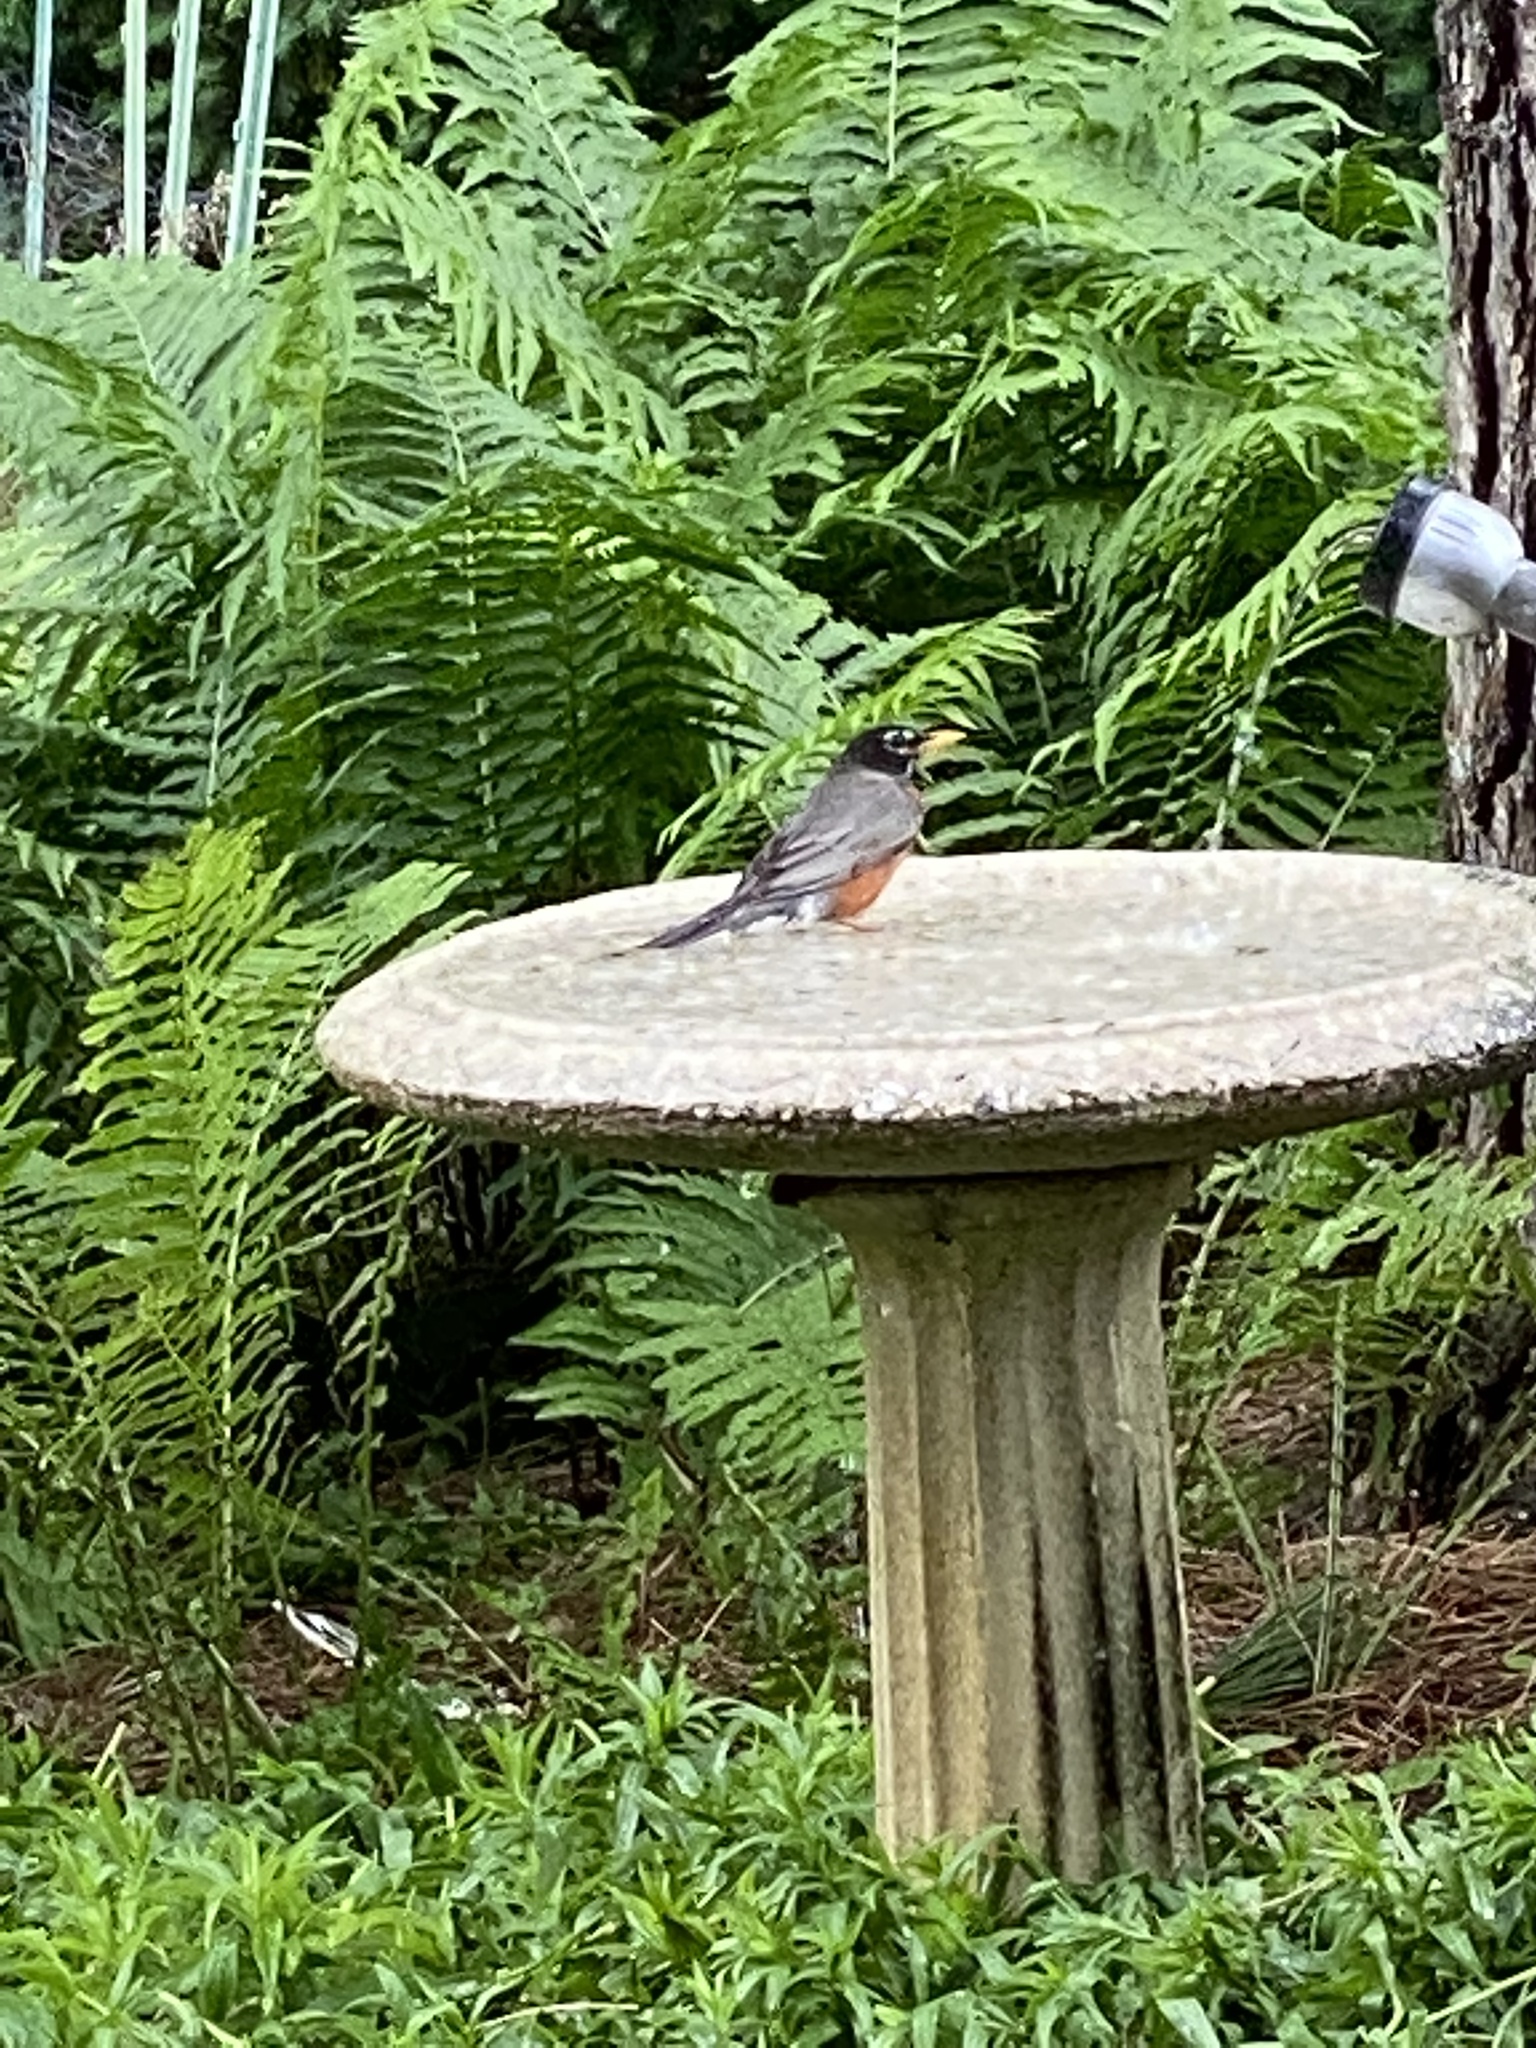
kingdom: Animalia
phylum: Chordata
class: Aves
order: Passeriformes
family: Turdidae
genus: Turdus
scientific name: Turdus migratorius
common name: American robin
